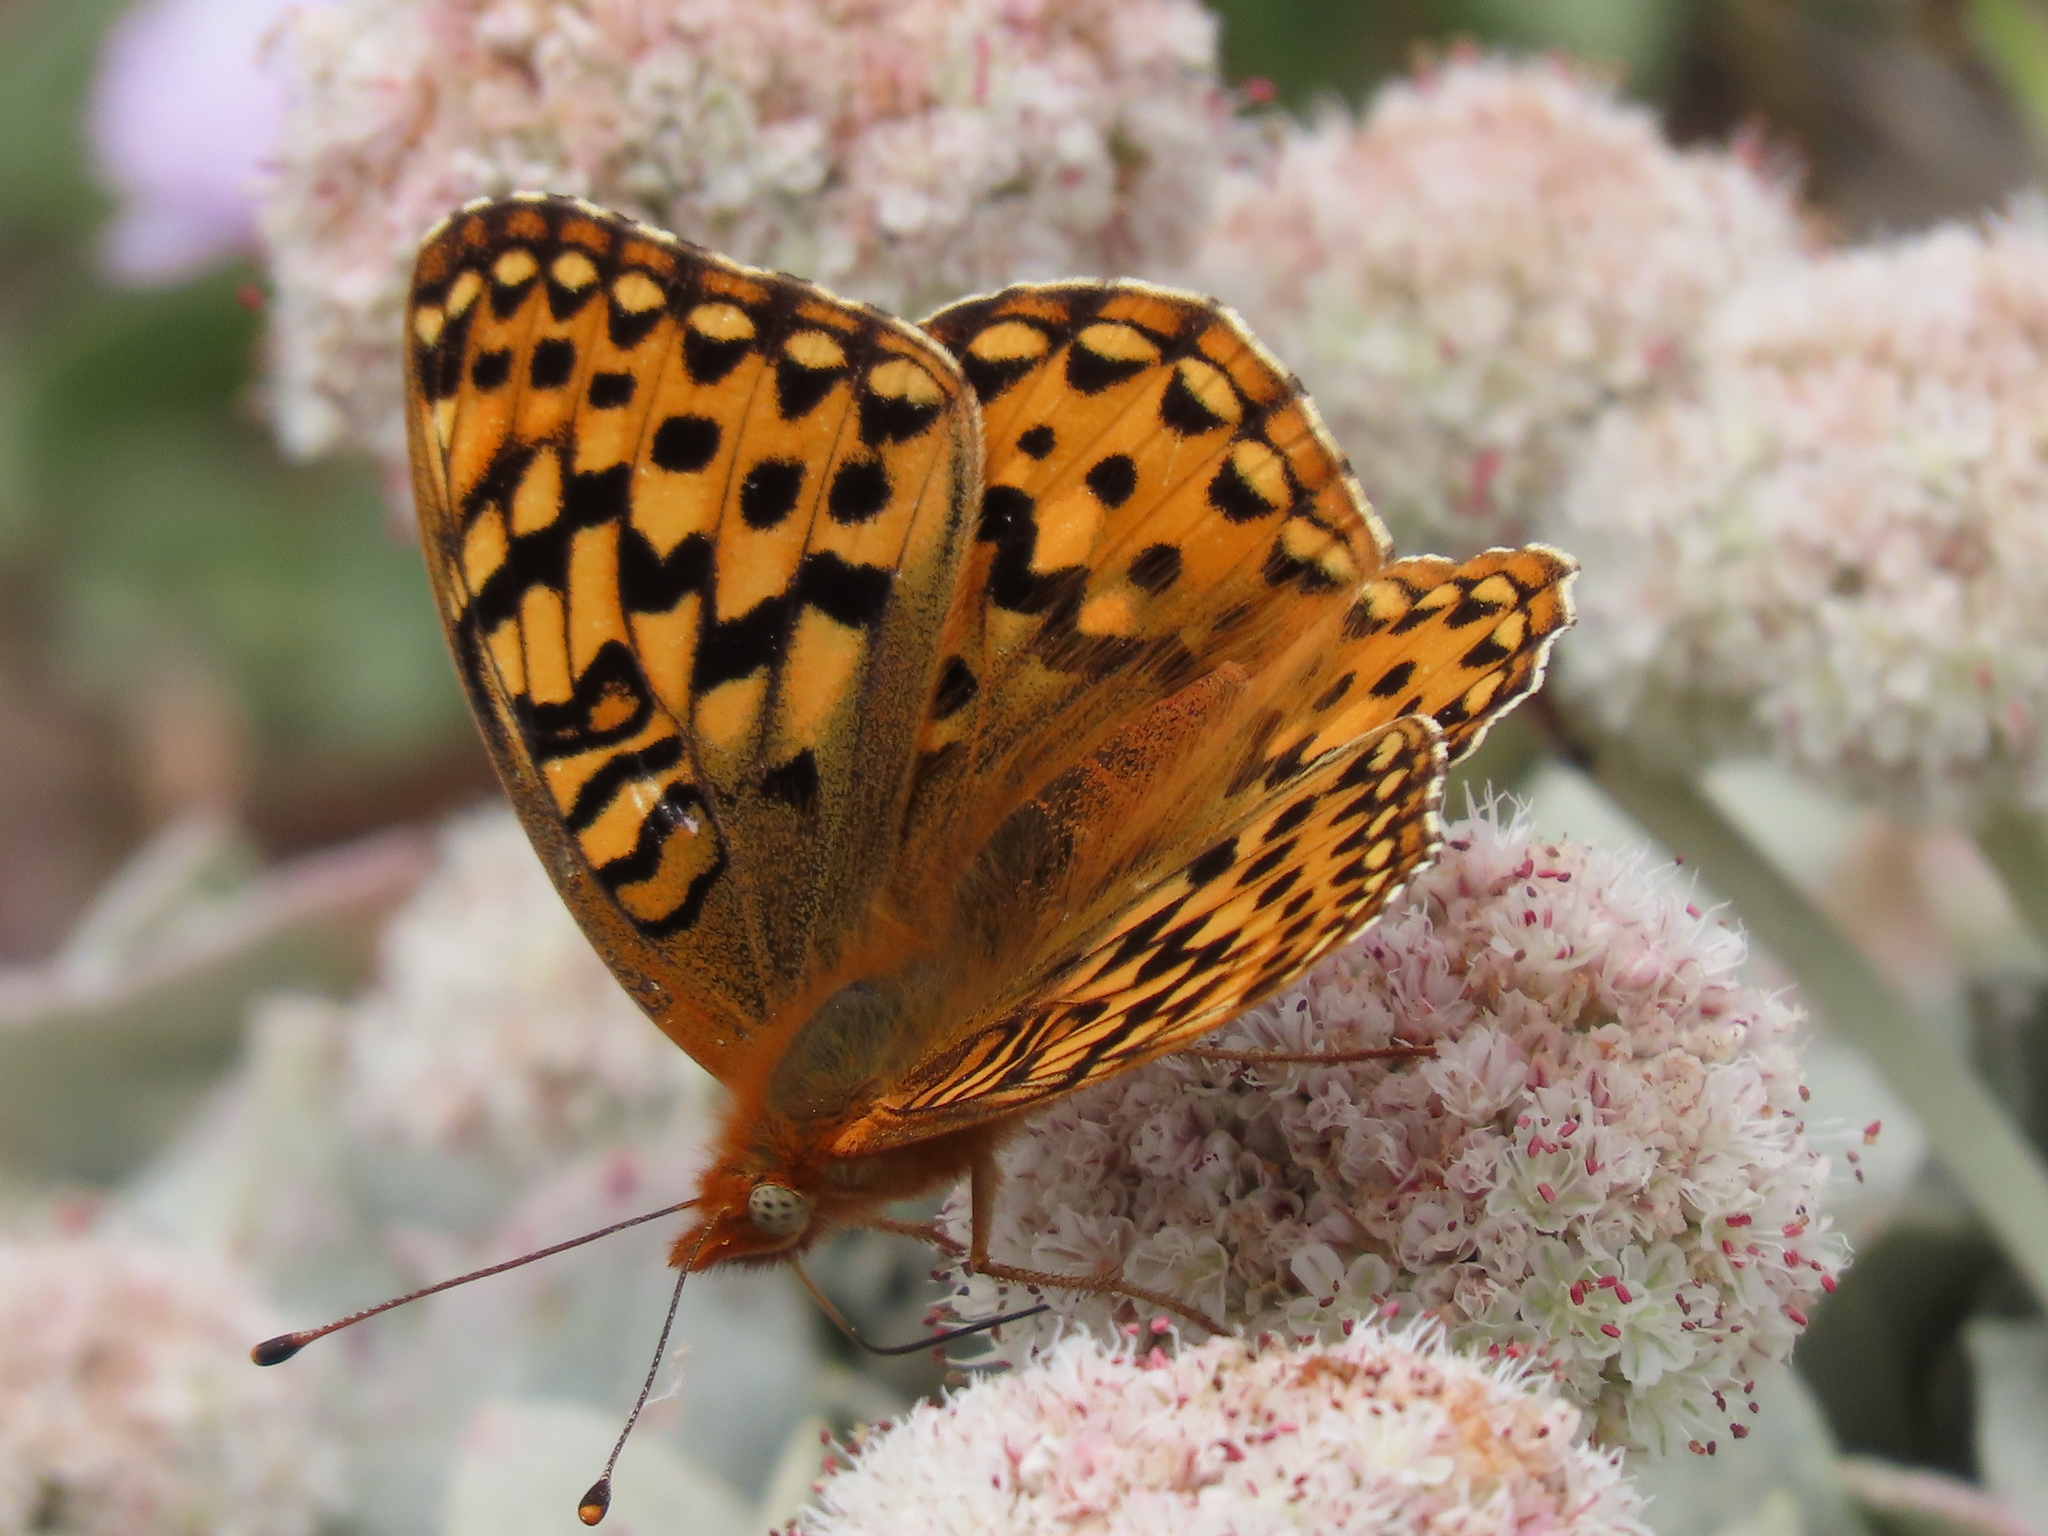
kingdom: Animalia
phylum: Arthropoda
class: Insecta
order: Lepidoptera
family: Nymphalidae
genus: Speyeria
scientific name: Speyeria zerene
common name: Zerene fritillary
